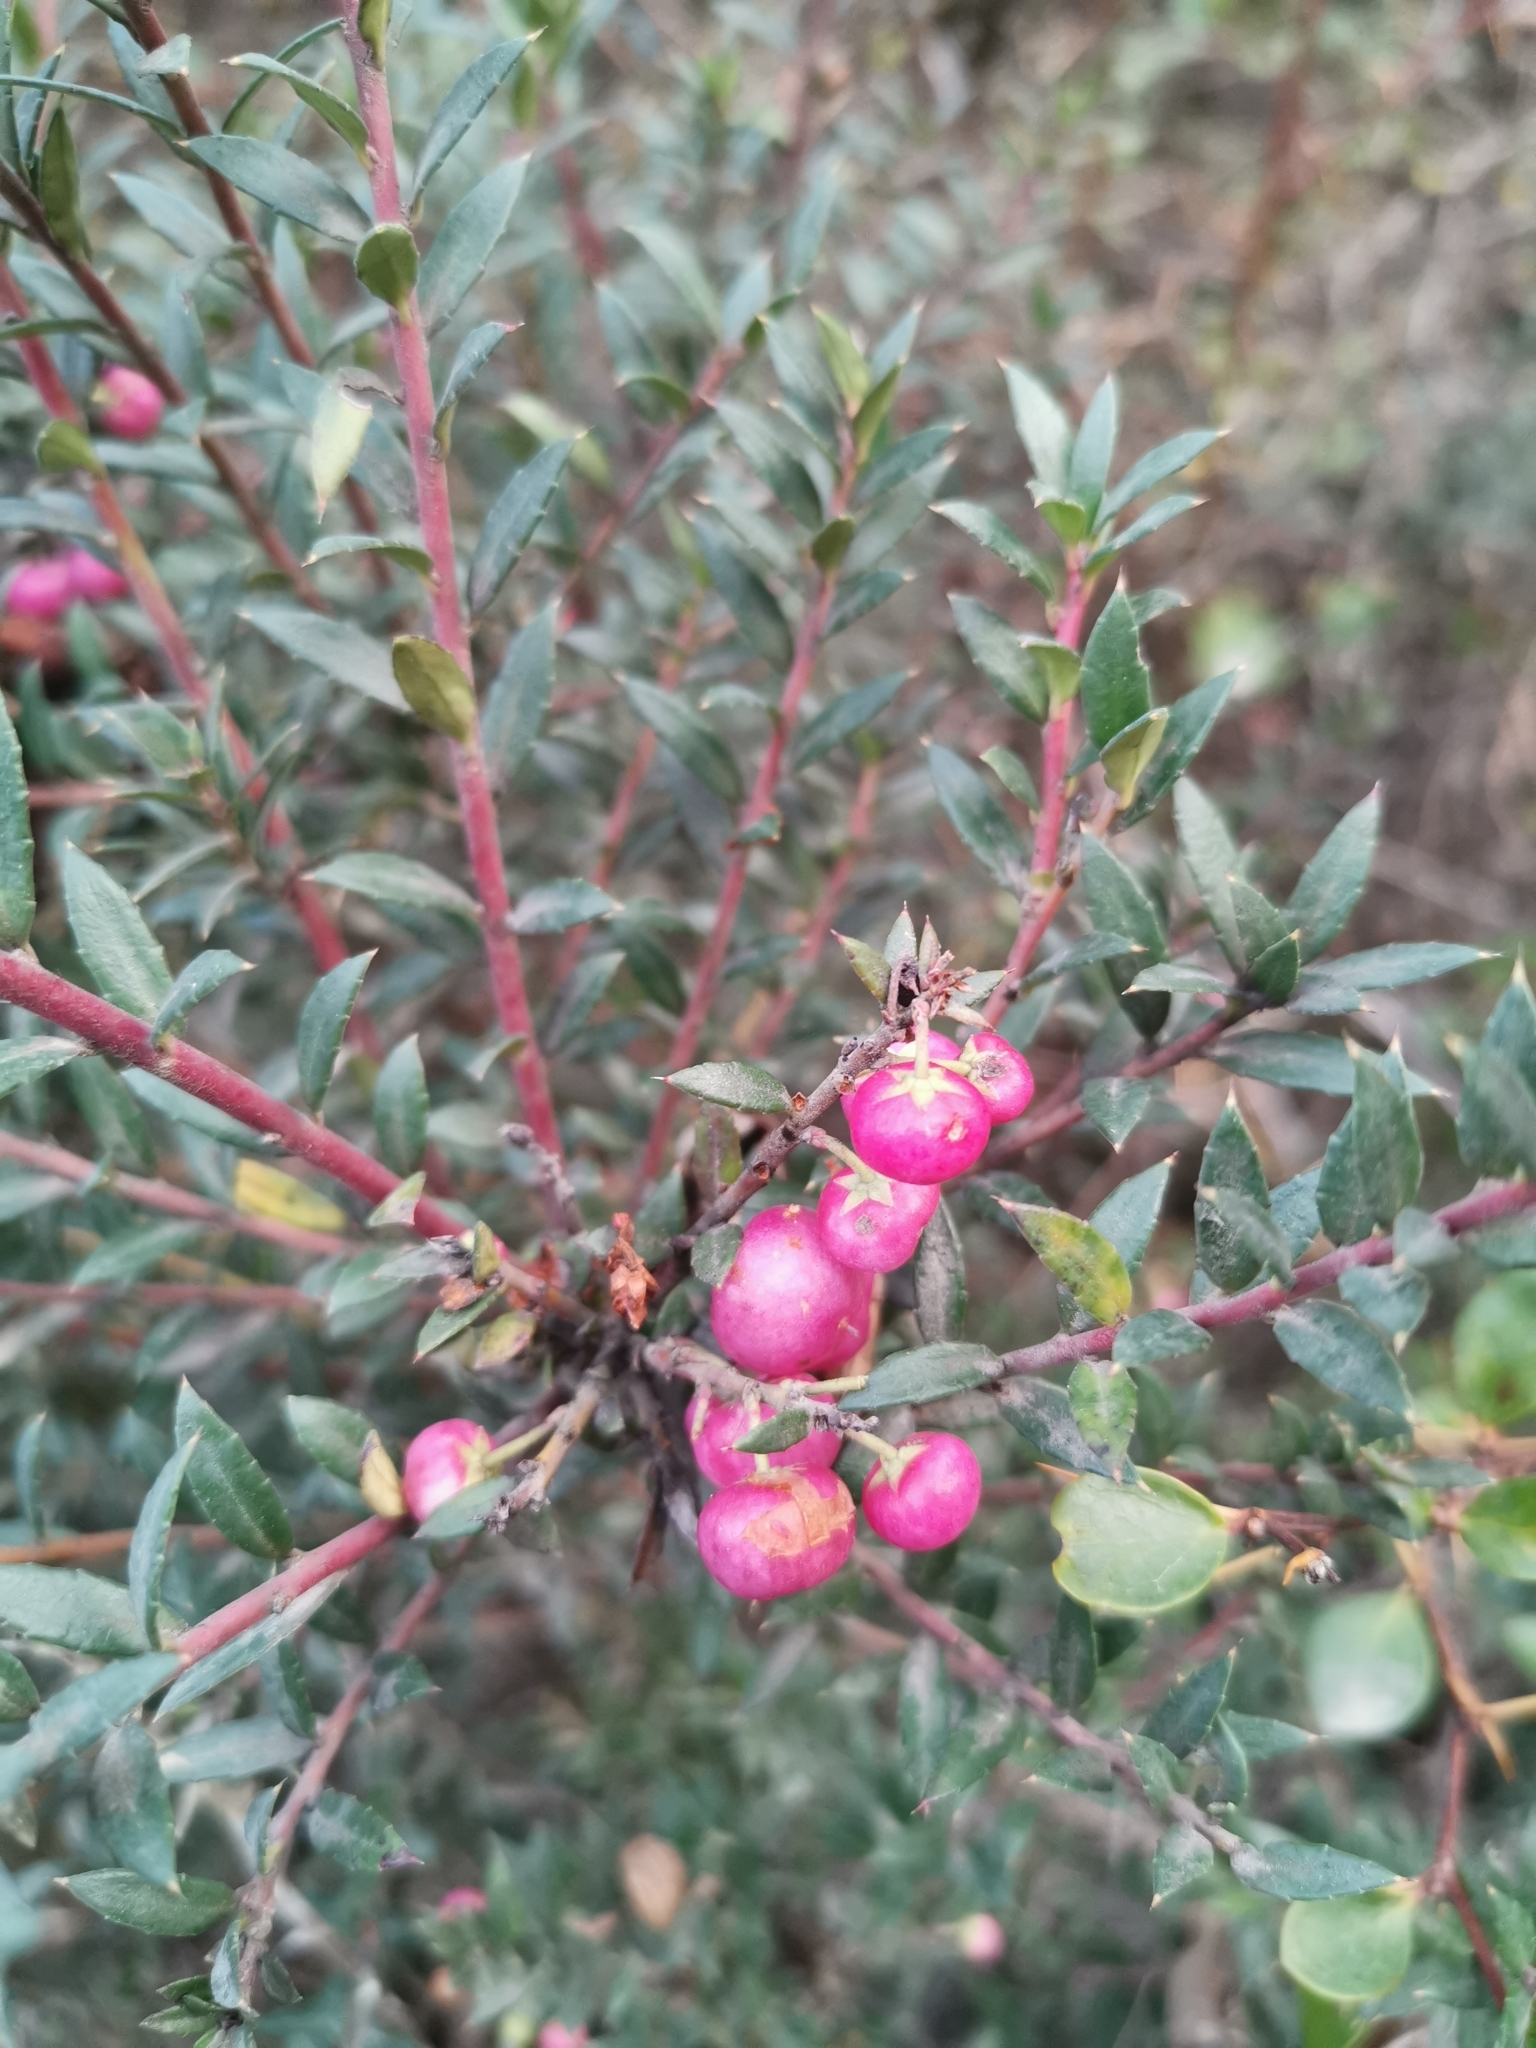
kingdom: Plantae
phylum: Tracheophyta
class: Magnoliopsida
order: Ericales
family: Ericaceae
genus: Gaultheria
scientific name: Gaultheria mucronata
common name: Prickly heath
